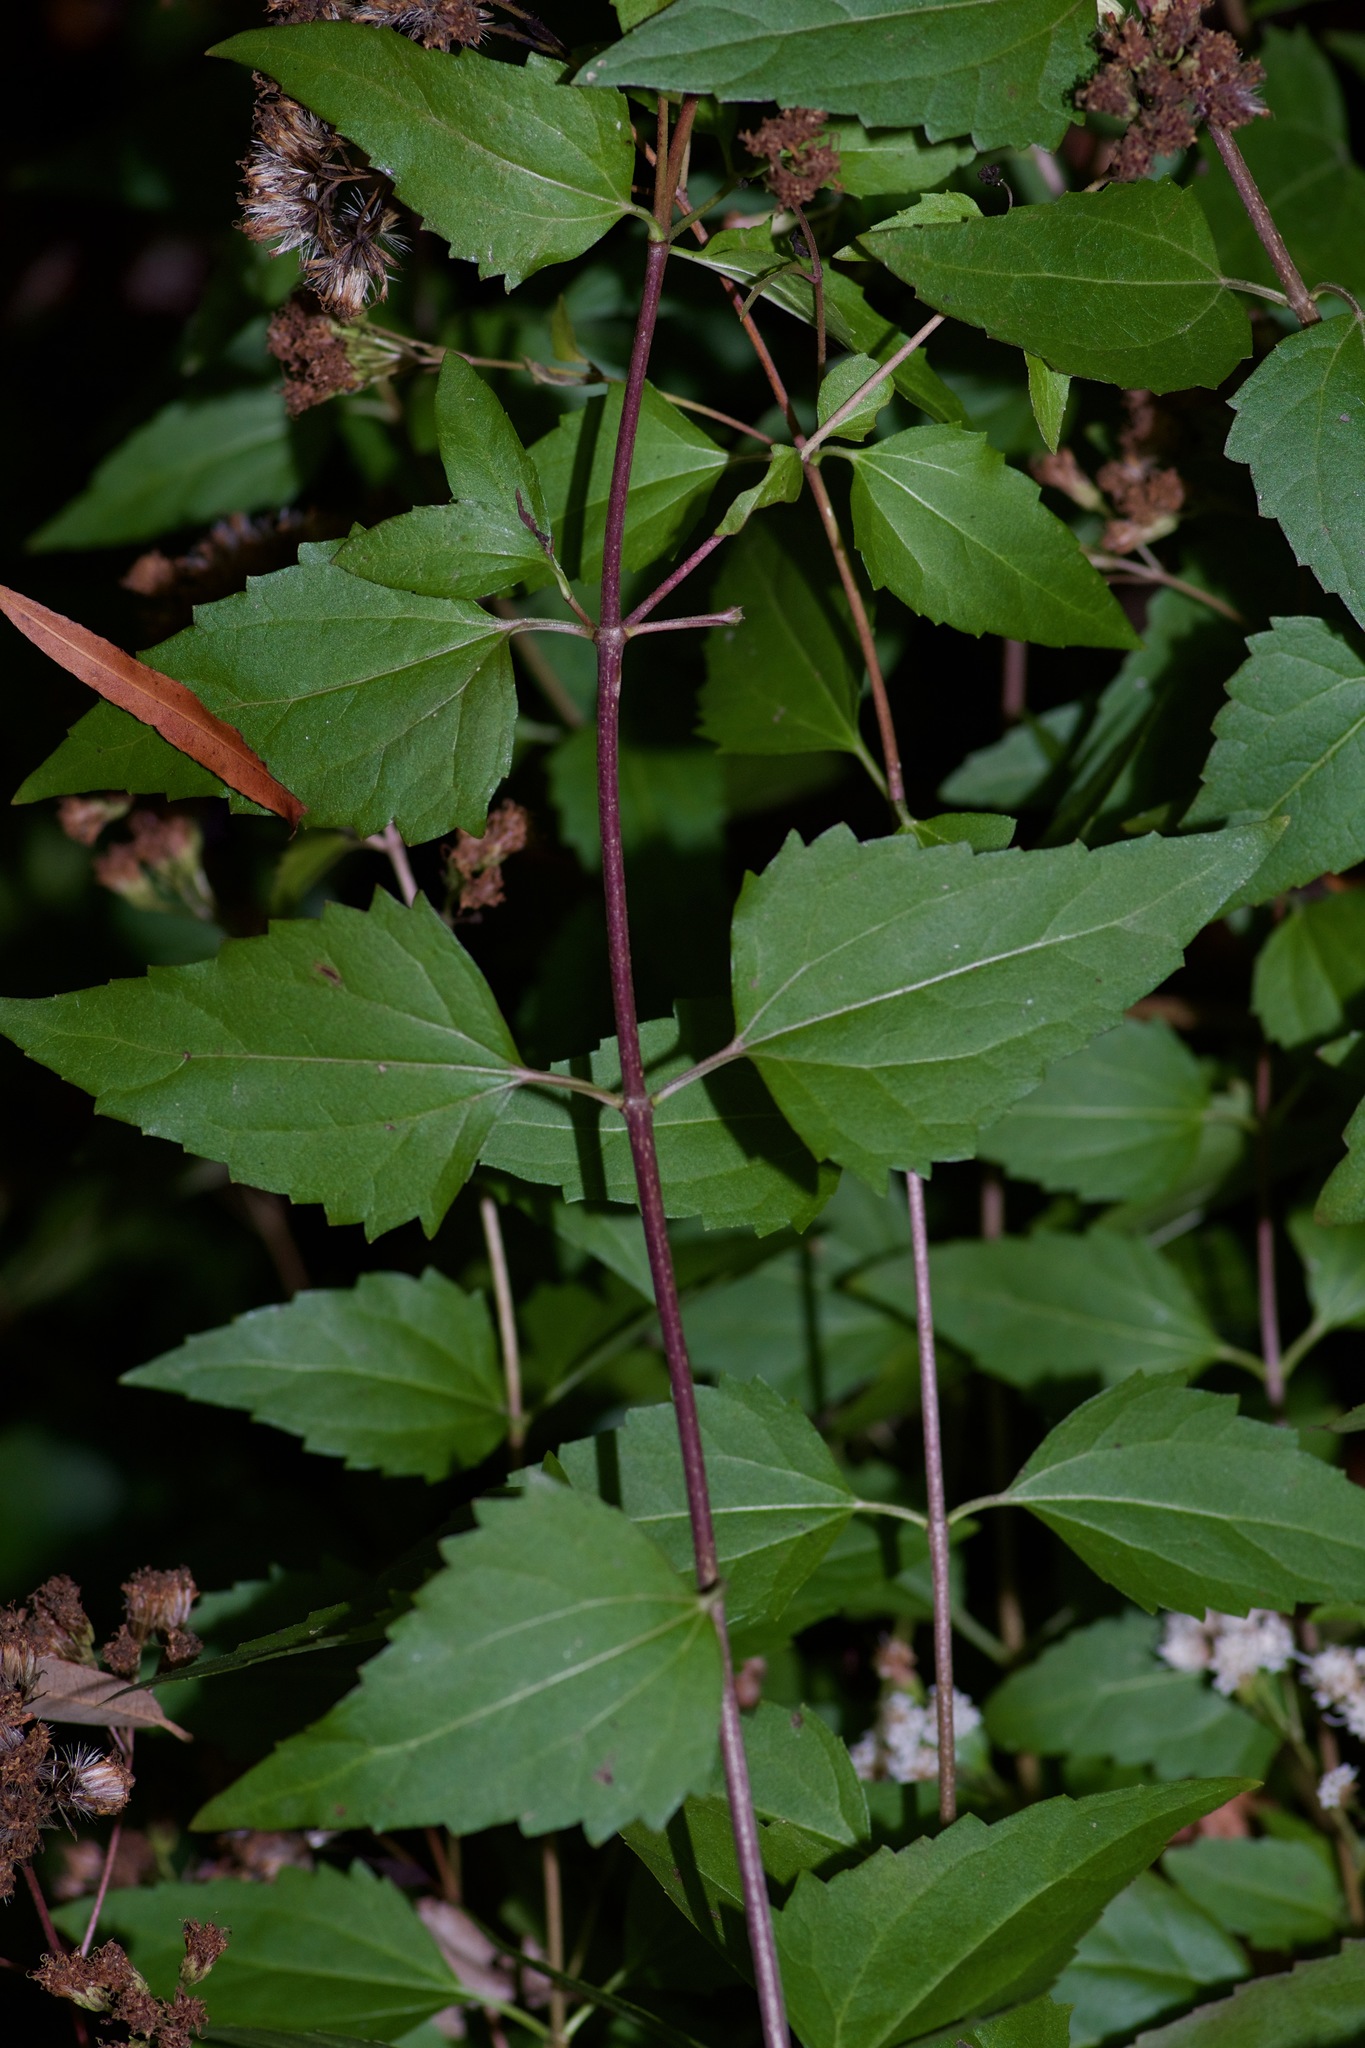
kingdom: Plantae
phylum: Tracheophyta
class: Magnoliopsida
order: Asterales
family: Asteraceae
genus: Ageratina
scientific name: Ageratina havanensis
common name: Havana snakeroot
